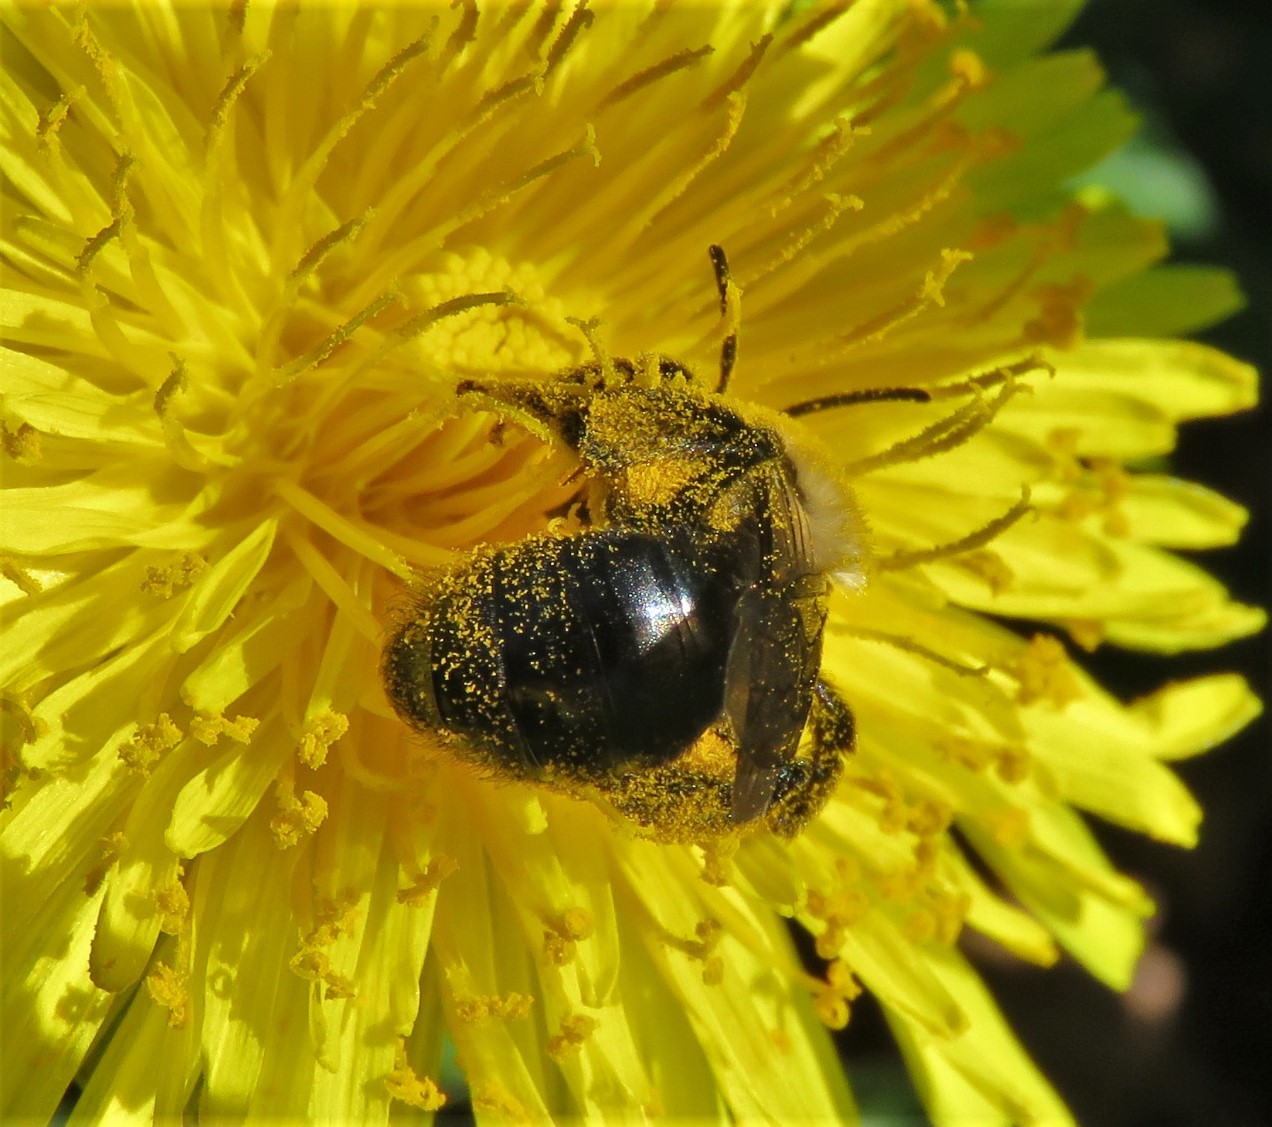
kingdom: Animalia
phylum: Arthropoda
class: Insecta
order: Hymenoptera
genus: Melandrena
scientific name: Melandrena
